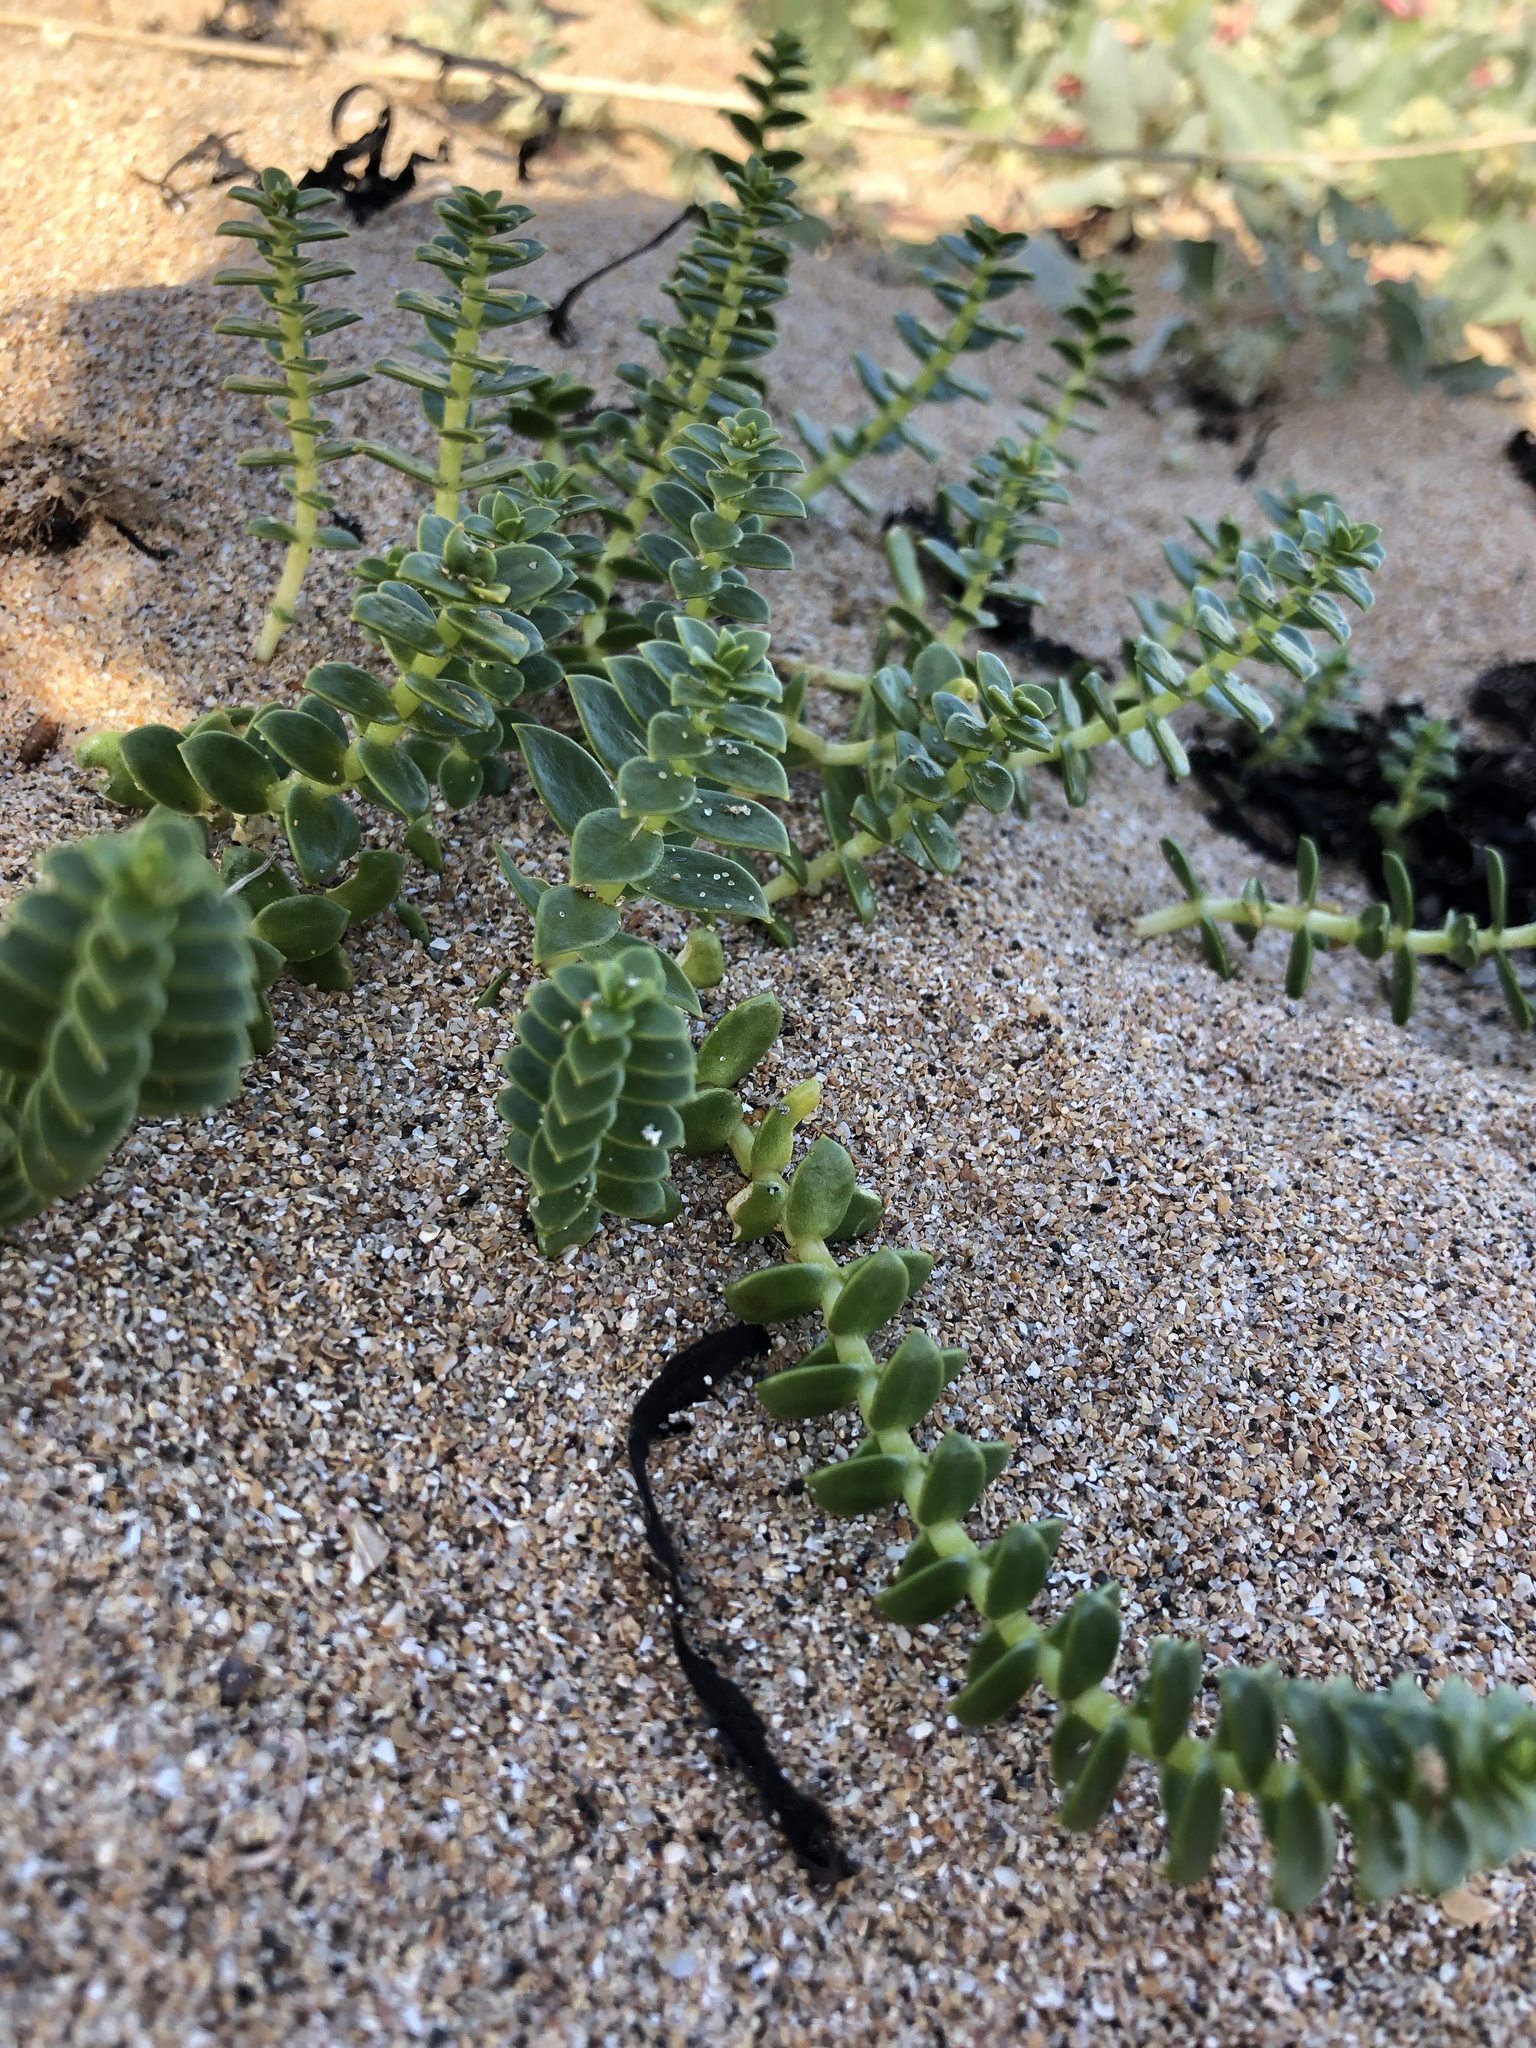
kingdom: Plantae
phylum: Tracheophyta
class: Magnoliopsida
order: Caryophyllales
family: Caryophyllaceae
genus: Honckenya
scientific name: Honckenya peploides
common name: Sea sandwort
